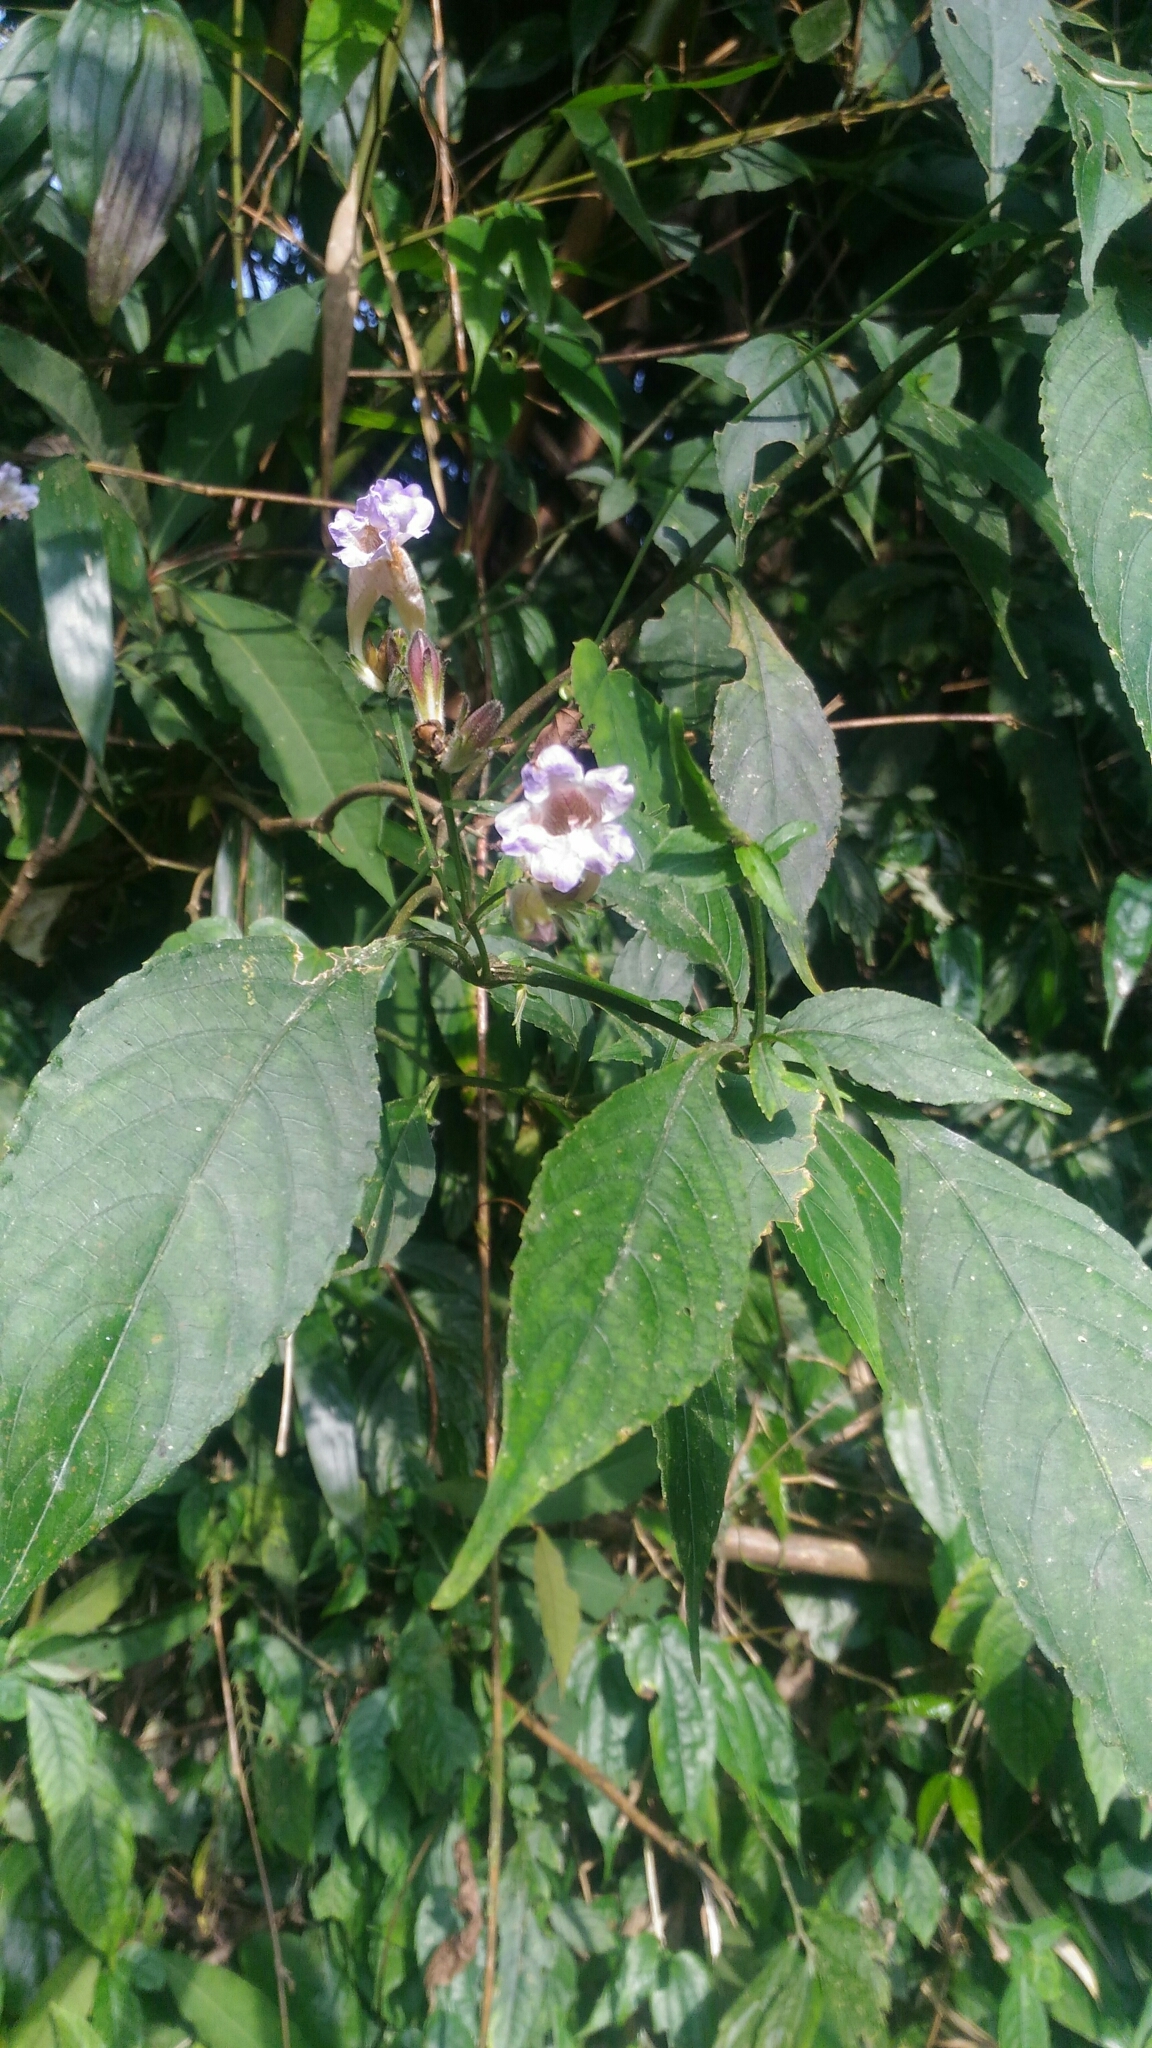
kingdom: Plantae
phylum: Tracheophyta
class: Magnoliopsida
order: Lamiales
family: Acanthaceae
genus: Strobilanthes
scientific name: Strobilanthes formosana
